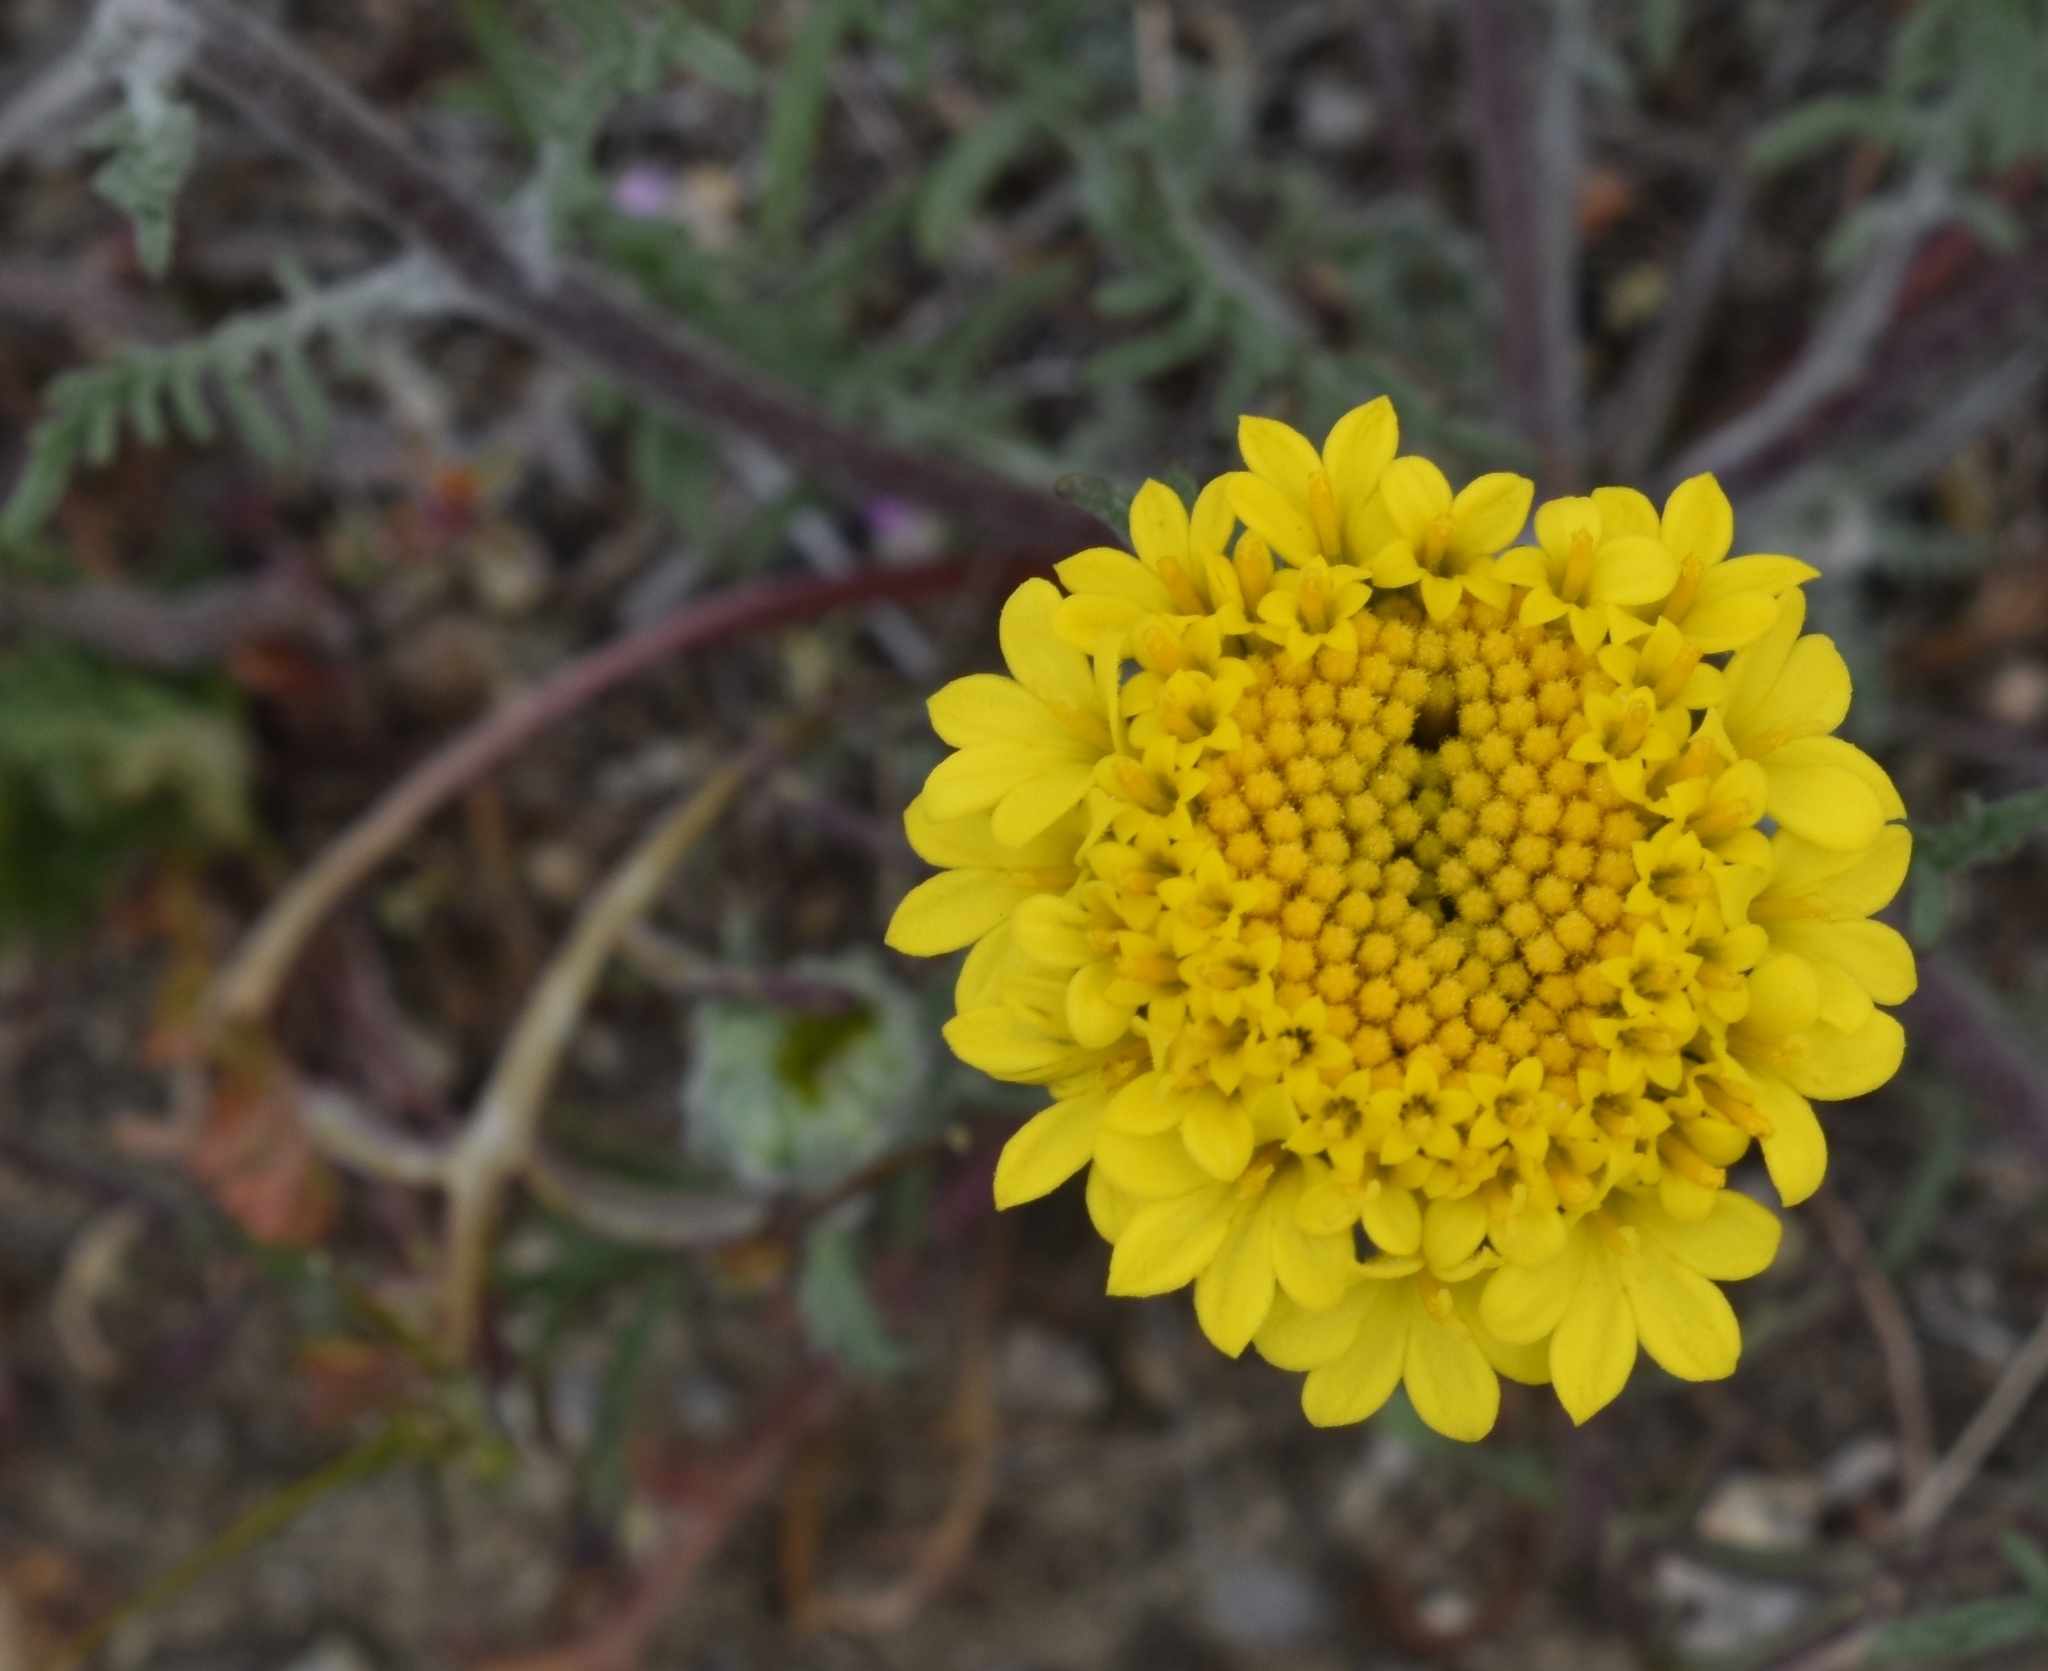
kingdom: Plantae
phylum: Tracheophyta
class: Magnoliopsida
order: Asterales
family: Asteraceae
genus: Chaenactis
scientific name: Chaenactis glabriuscula
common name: Yellow pincushion
